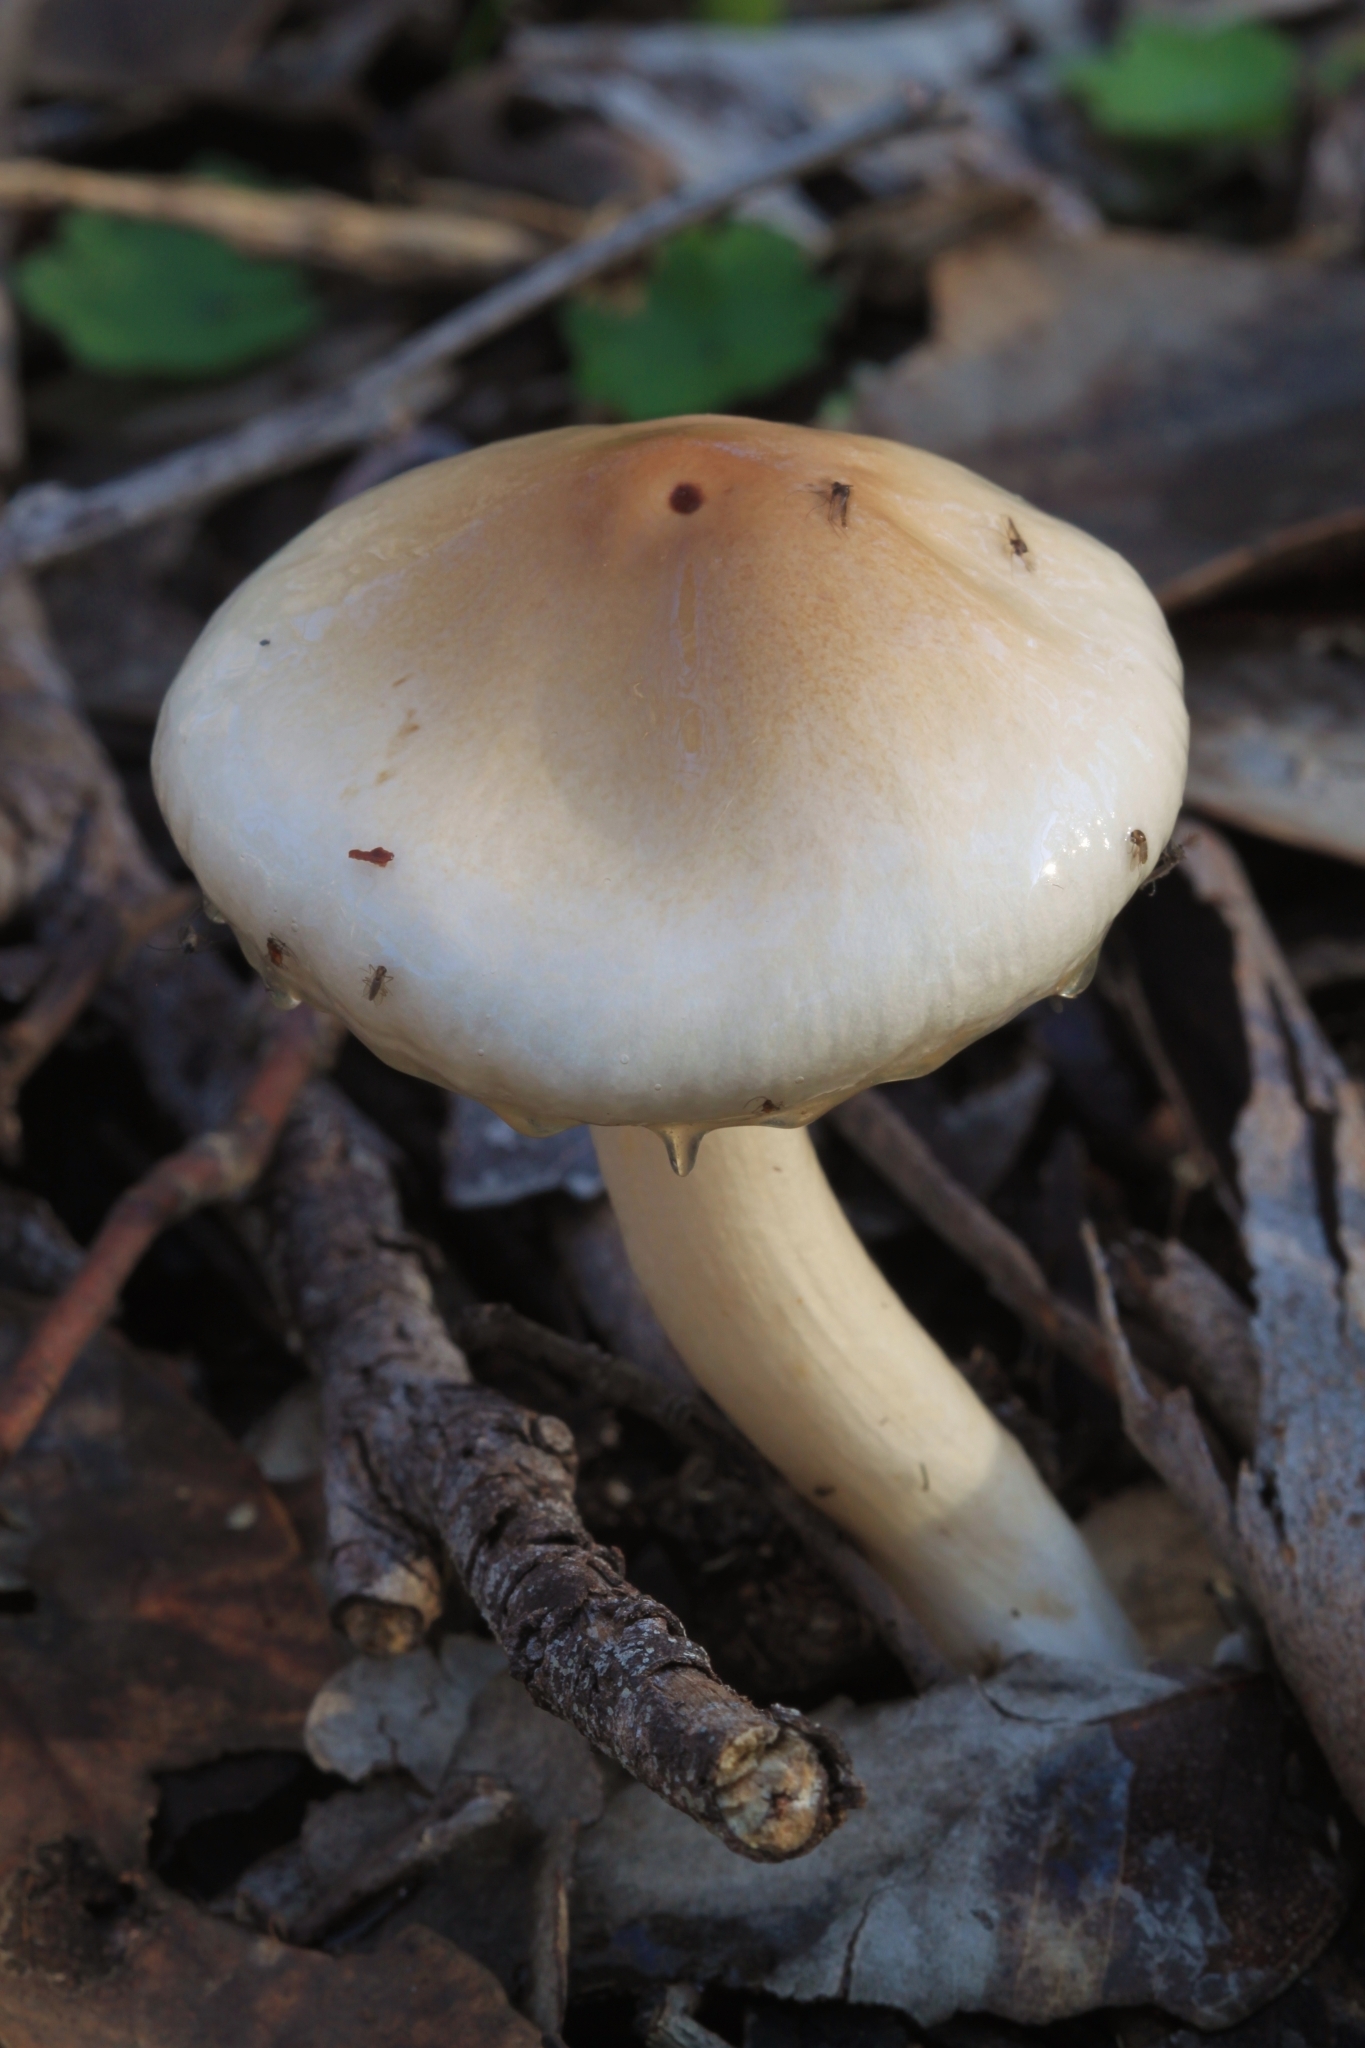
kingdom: Fungi
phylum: Basidiomycota
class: Agaricomycetes
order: Agaricales
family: Amanitaceae
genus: Limacella
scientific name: Limacella pitereka
